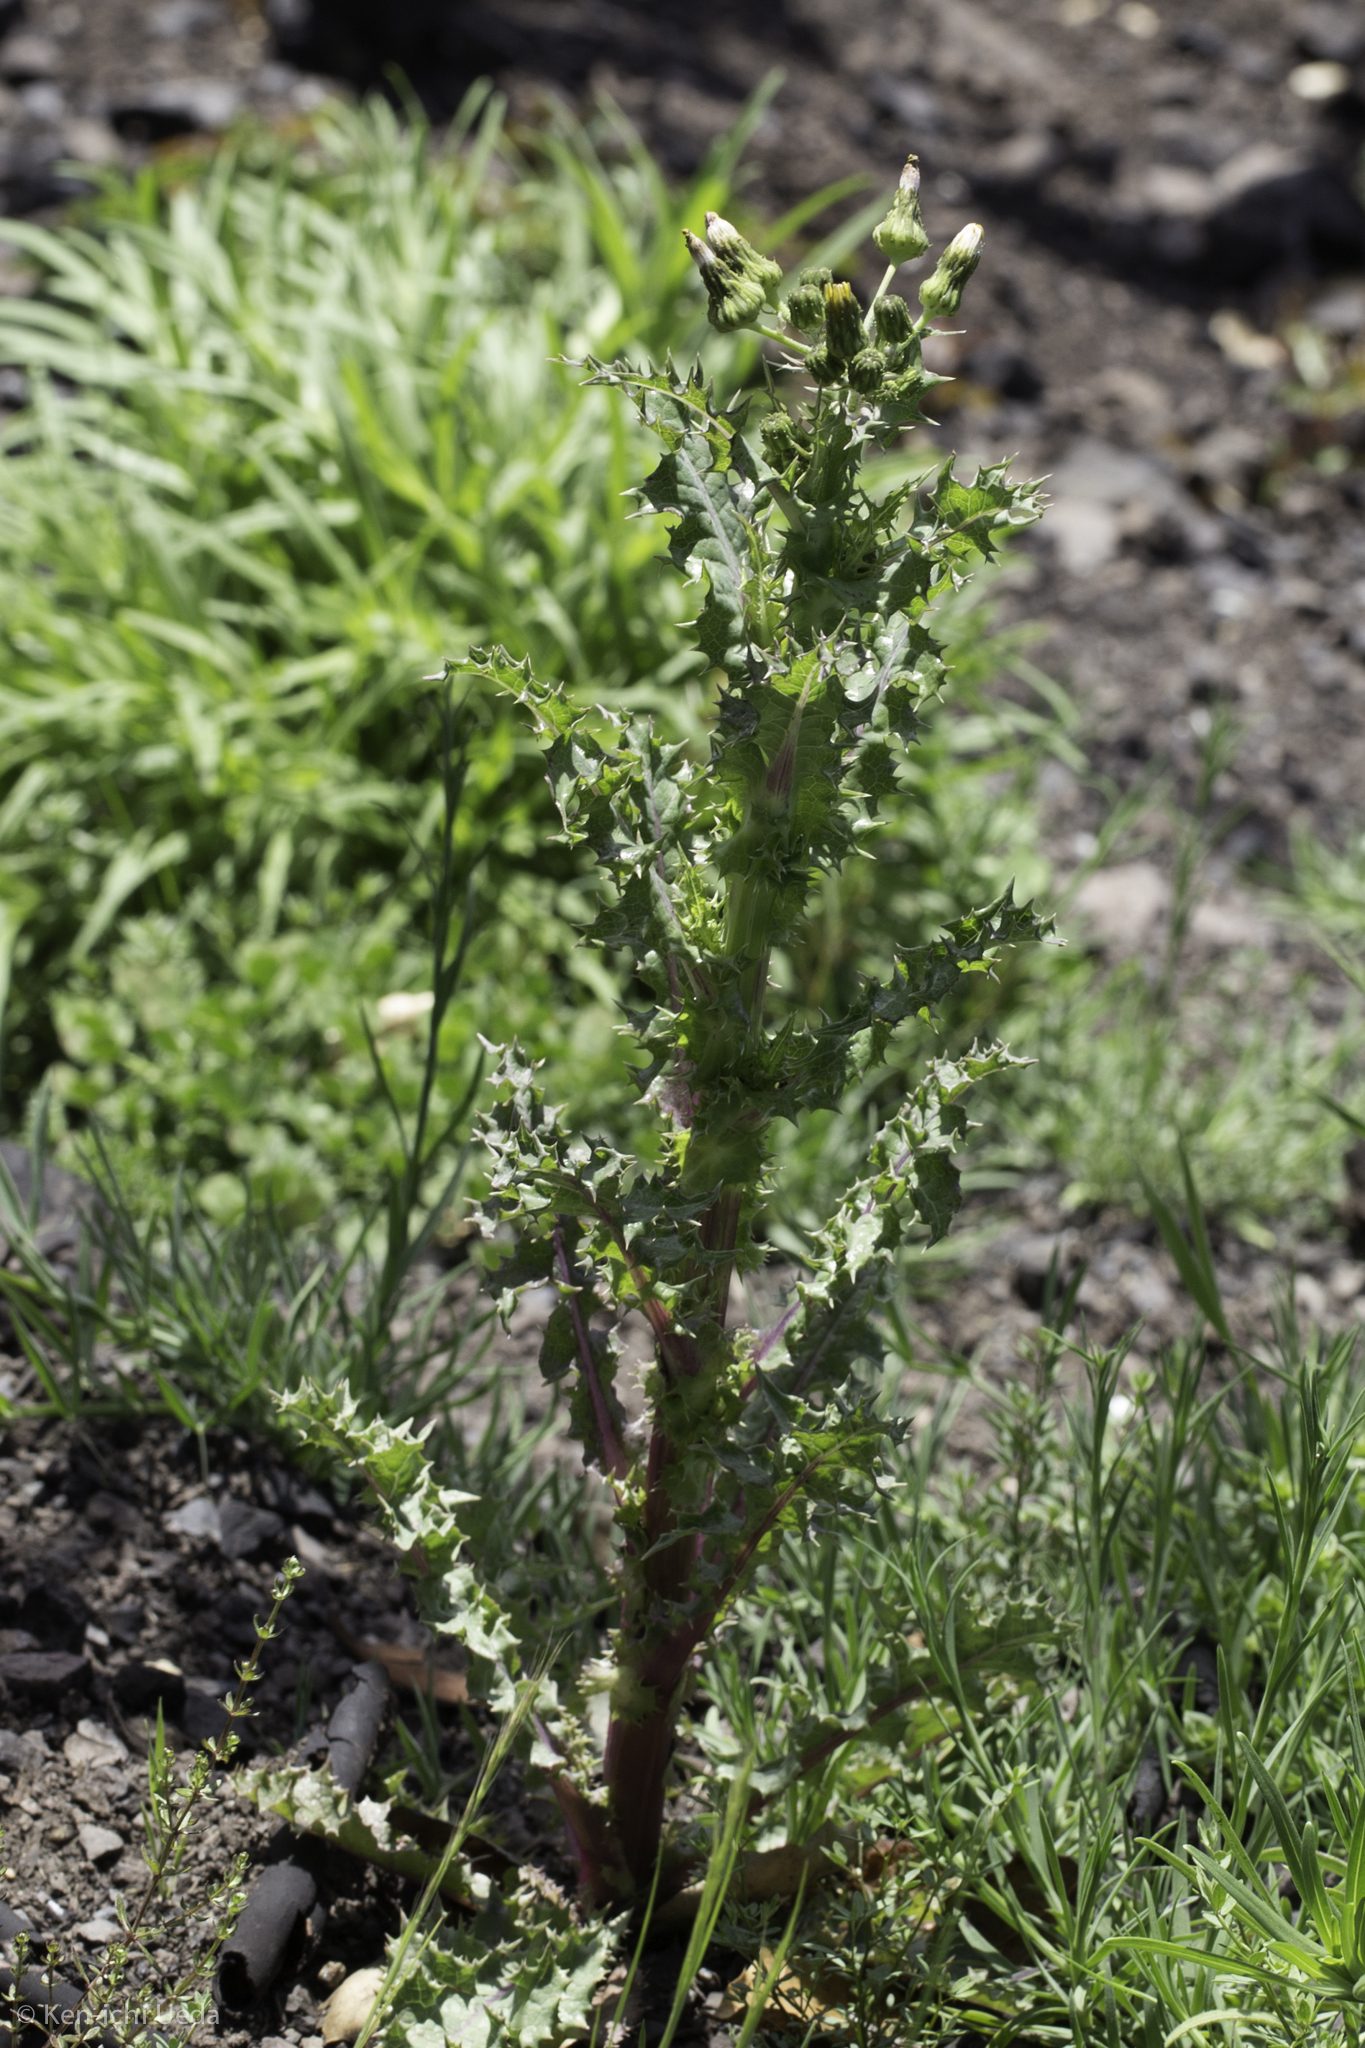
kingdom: Plantae
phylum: Tracheophyta
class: Magnoliopsida
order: Asterales
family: Asteraceae
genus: Sonchus
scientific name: Sonchus asper
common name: Prickly sow-thistle
